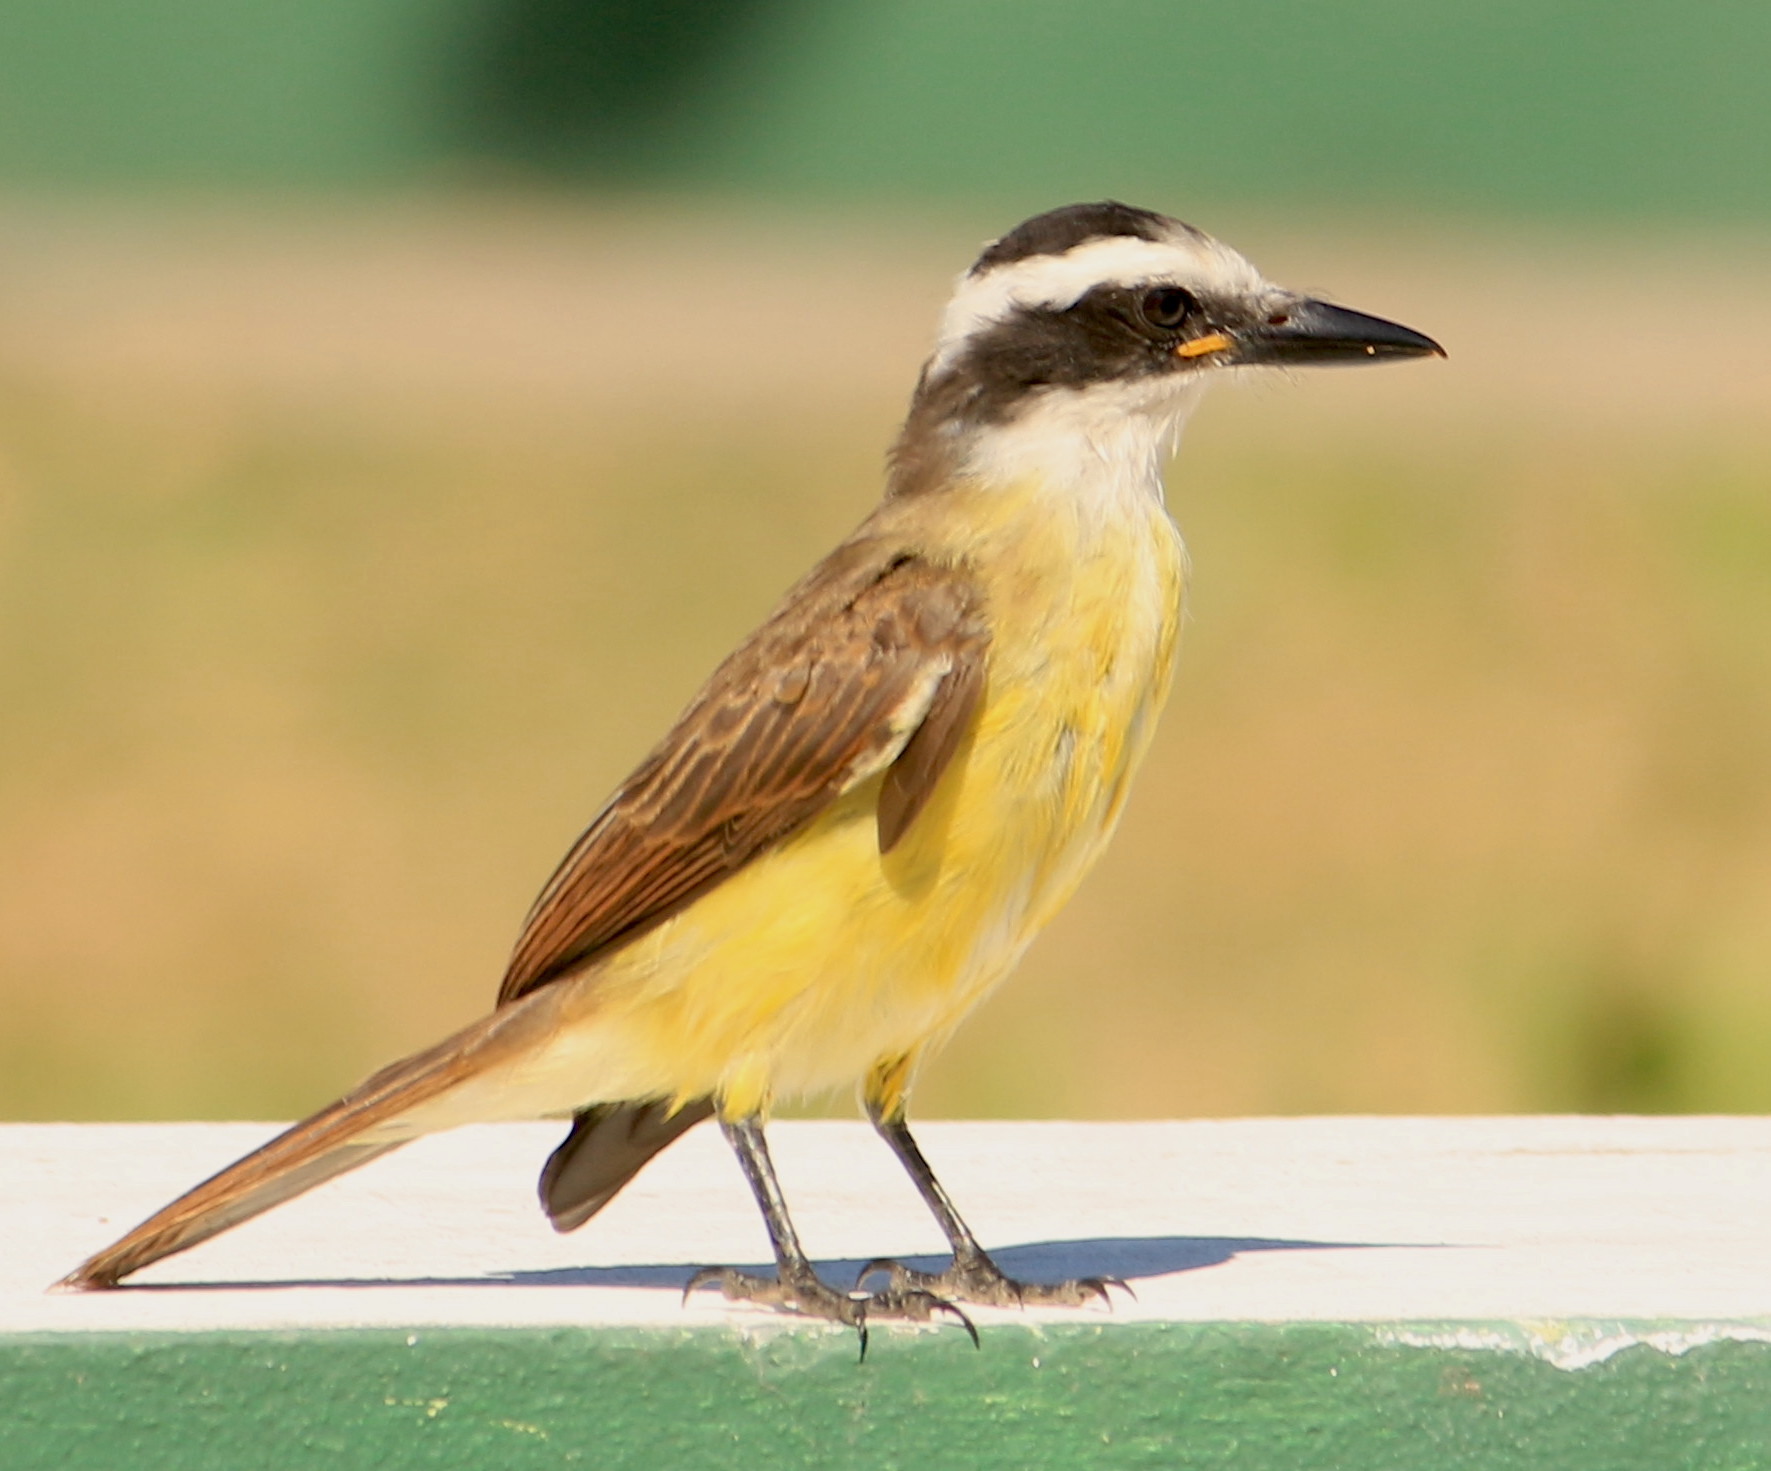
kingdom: Animalia
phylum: Chordata
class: Aves
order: Passeriformes
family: Tyrannidae
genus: Pitangus
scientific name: Pitangus sulphuratus
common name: Great kiskadee
